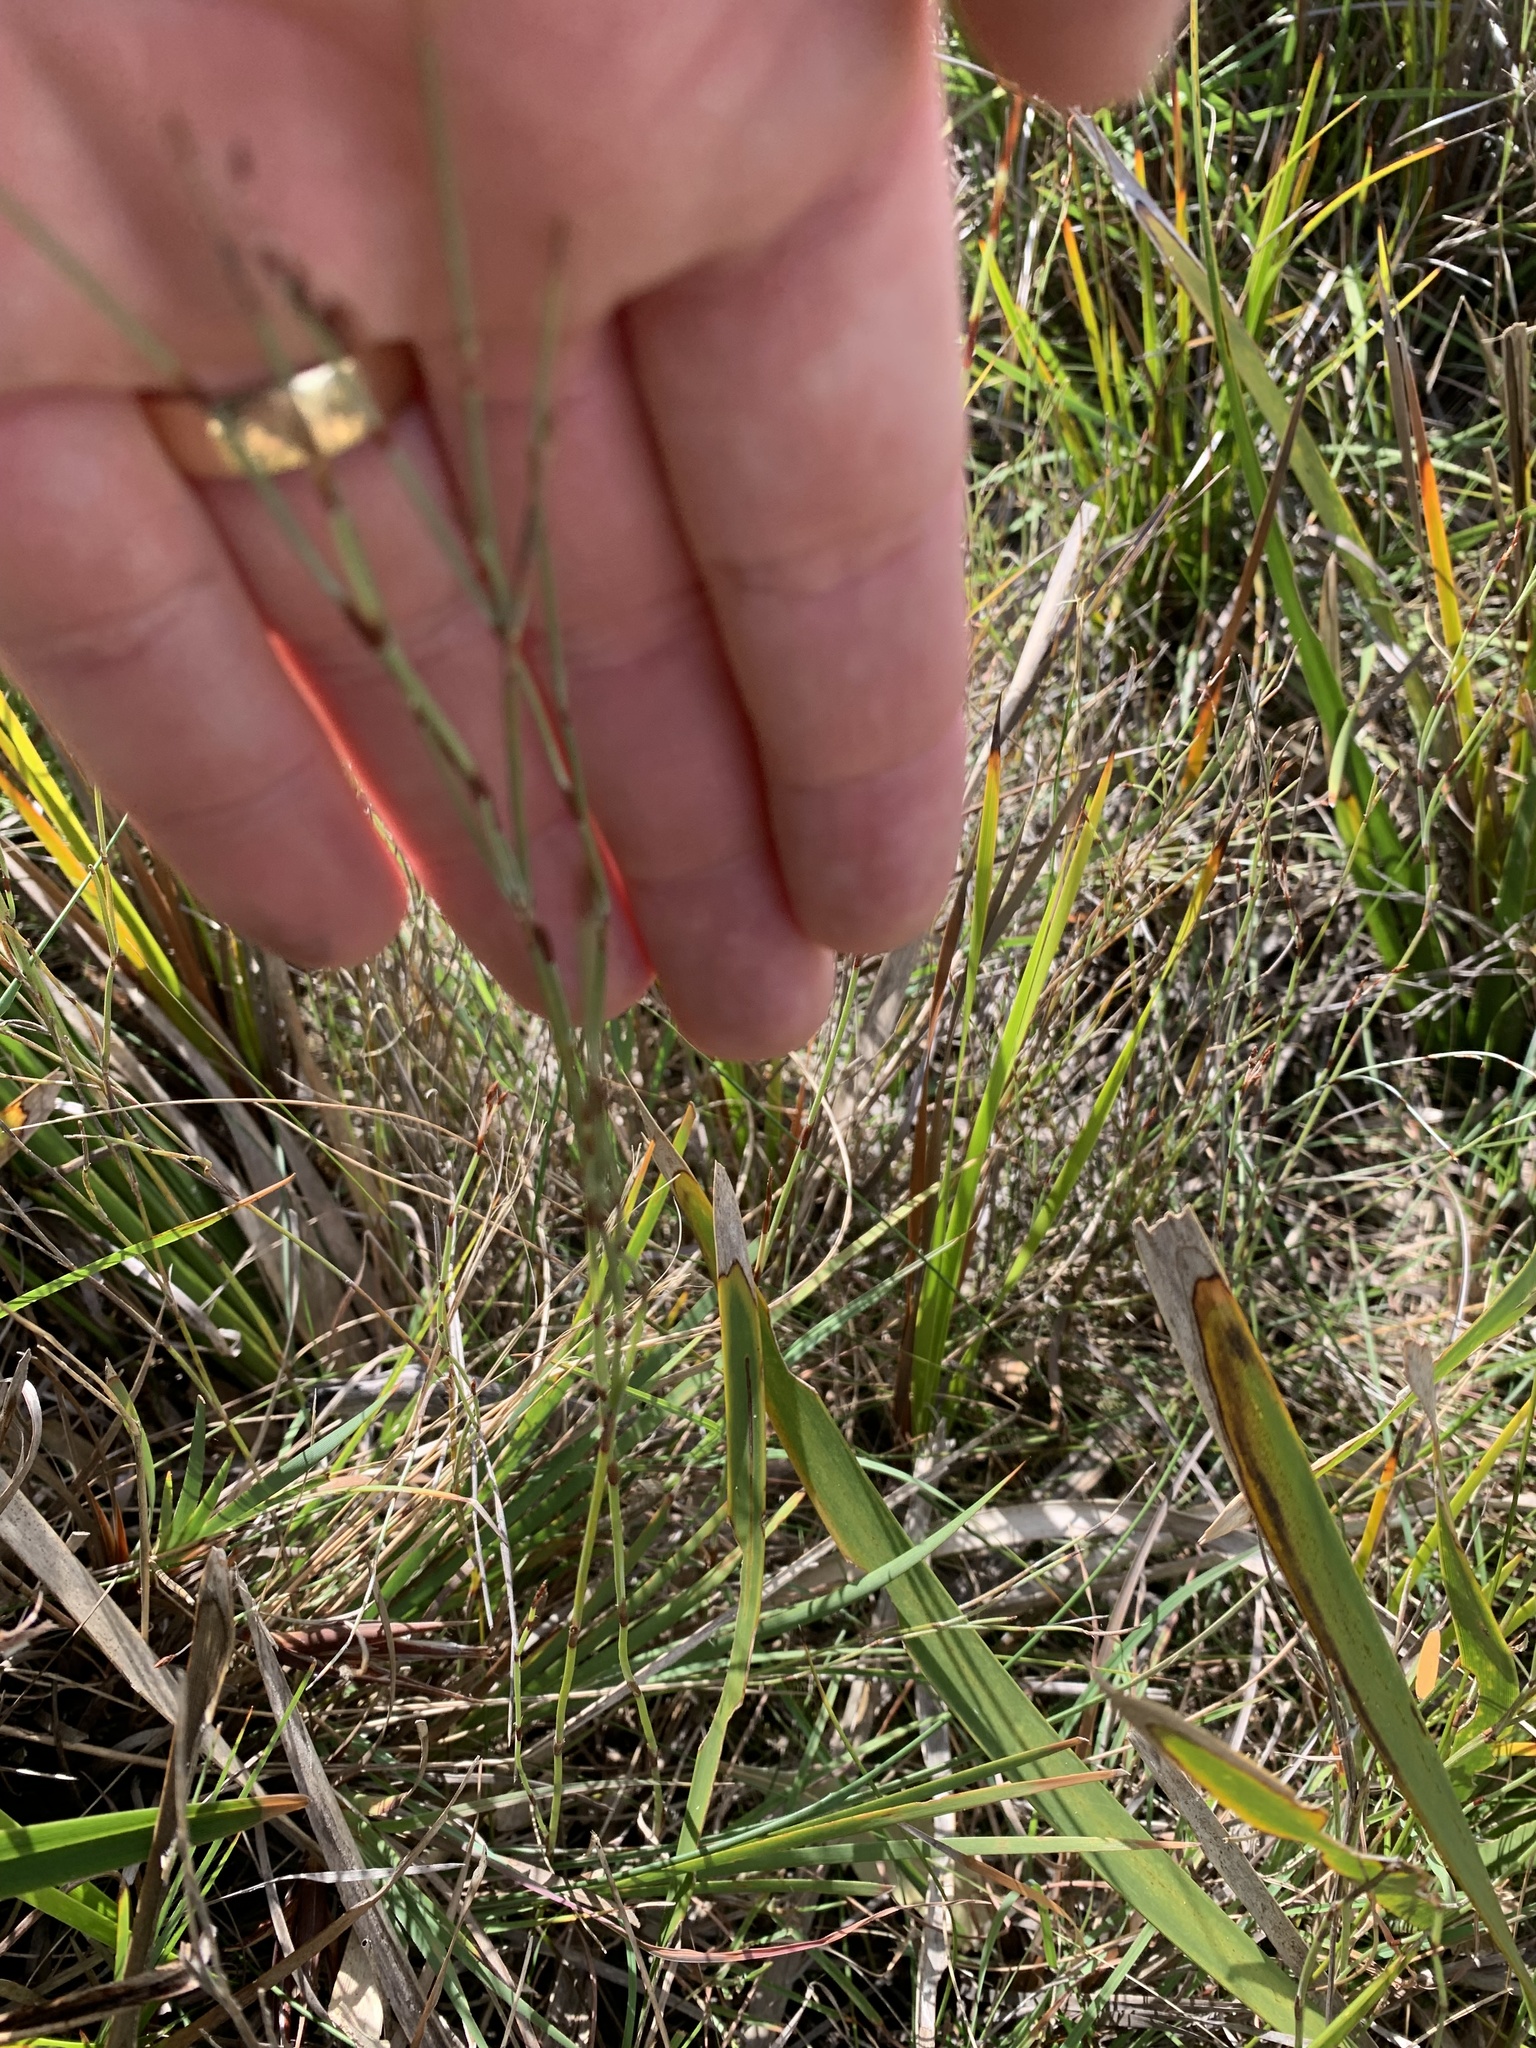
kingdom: Plantae
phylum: Tracheophyta
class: Liliopsida
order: Poales
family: Restionaceae
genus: Hypolaena
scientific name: Hypolaena fastigiata
